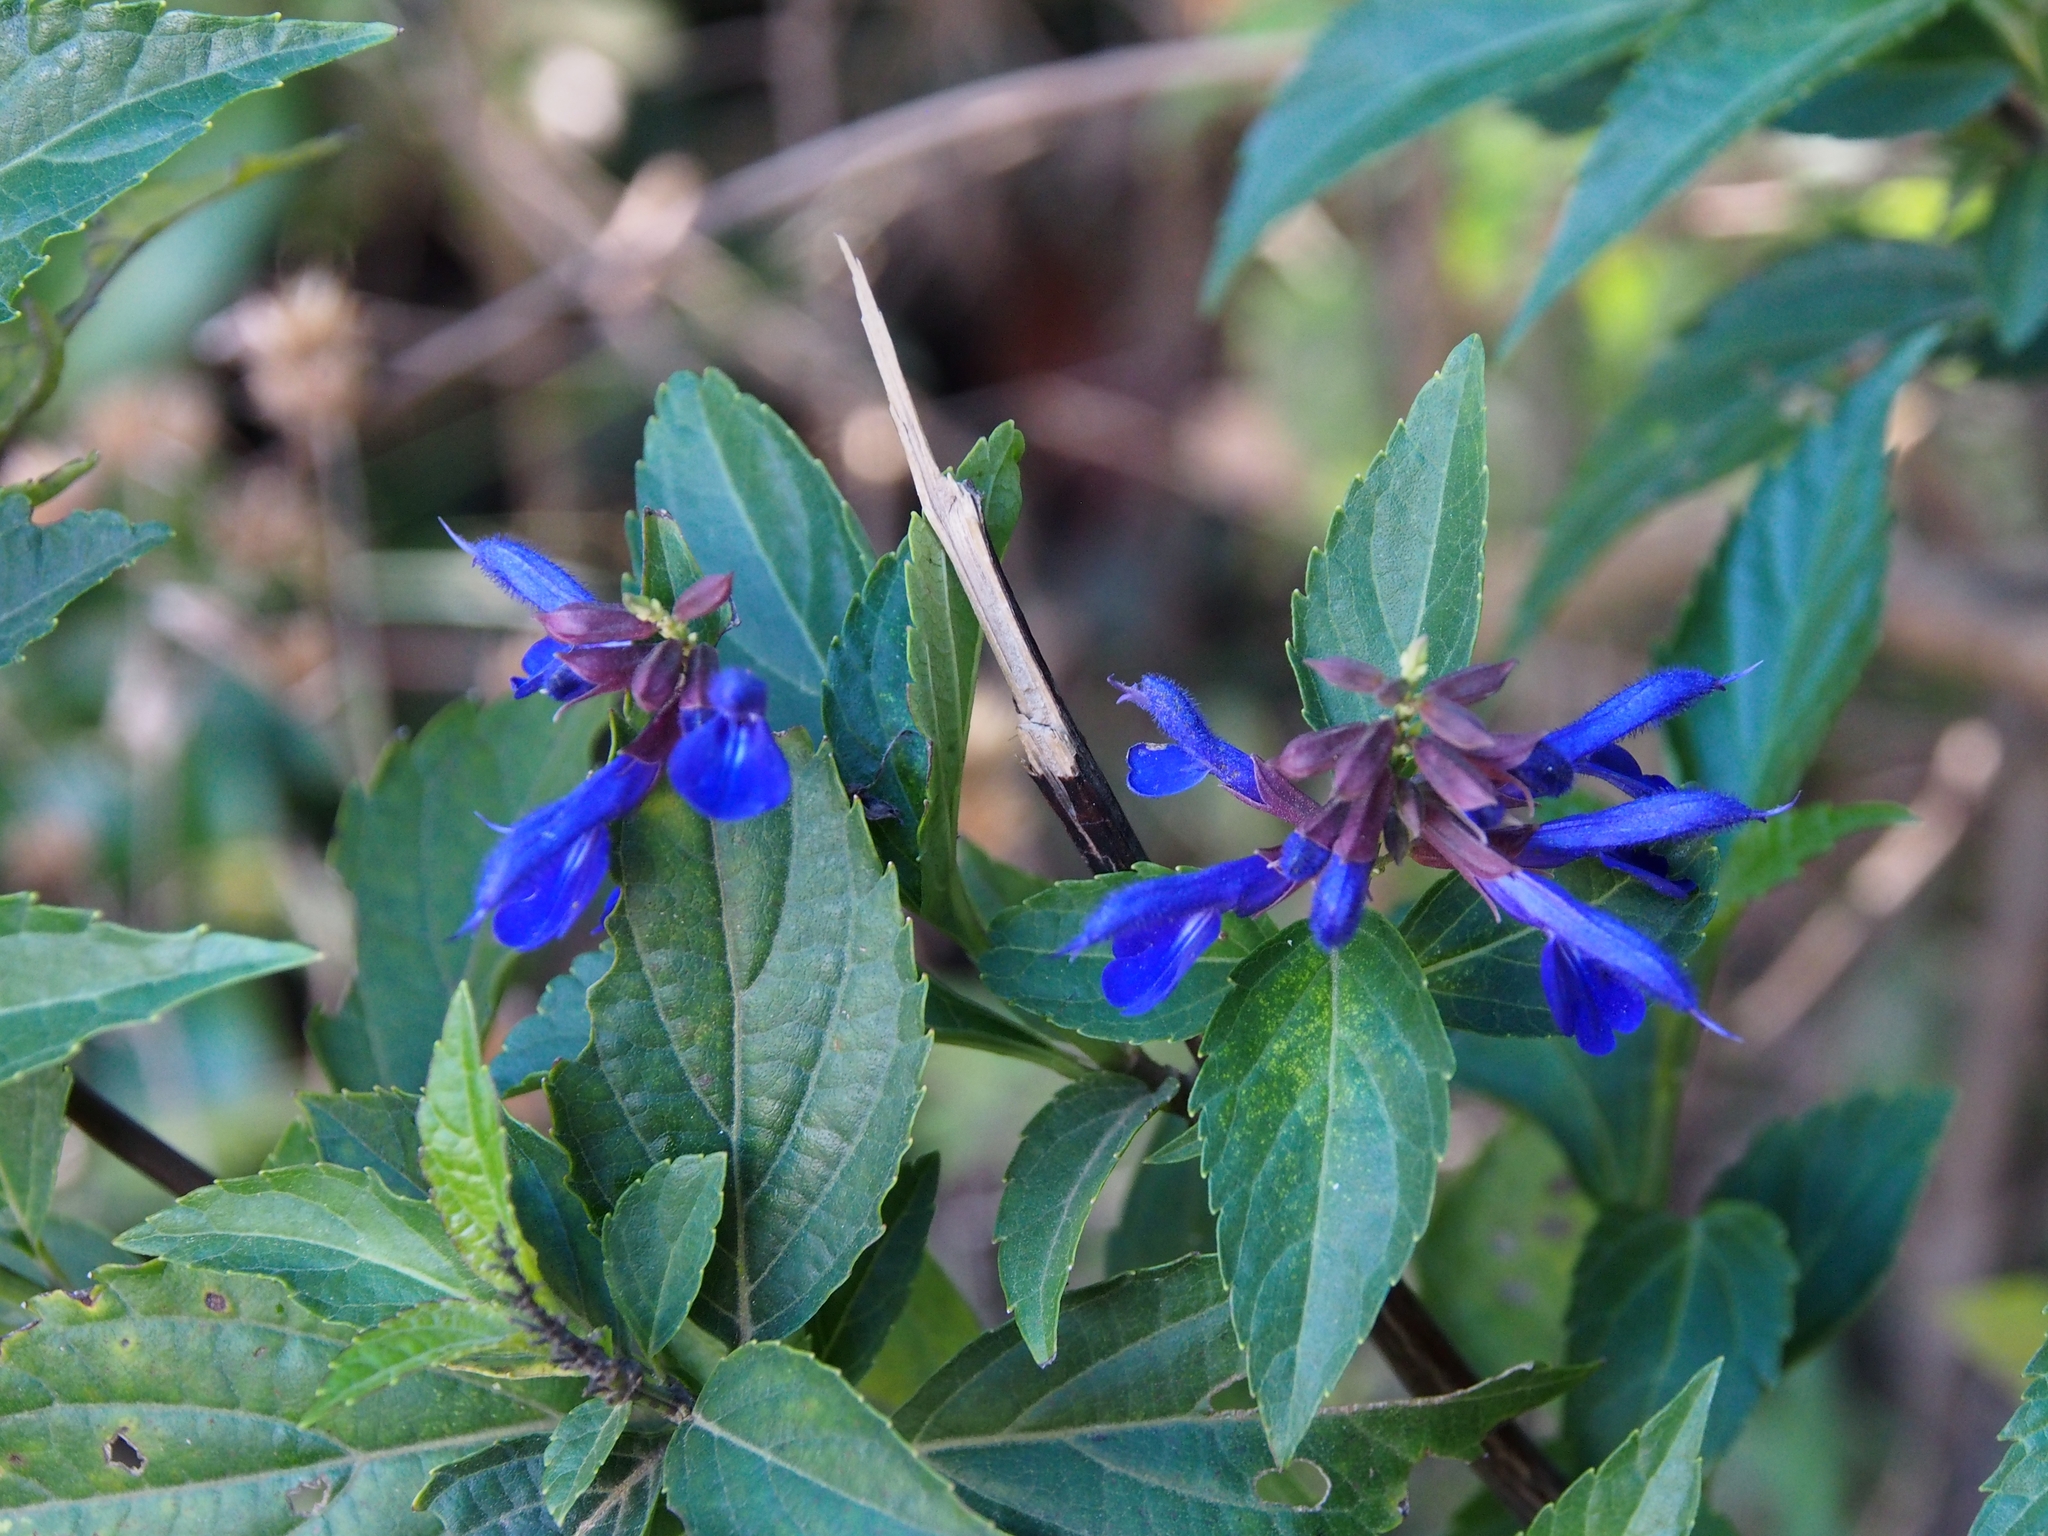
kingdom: Plantae
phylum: Tracheophyta
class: Magnoliopsida
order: Lamiales
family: Lamiaceae
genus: Salvia
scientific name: Salvia pteroura
